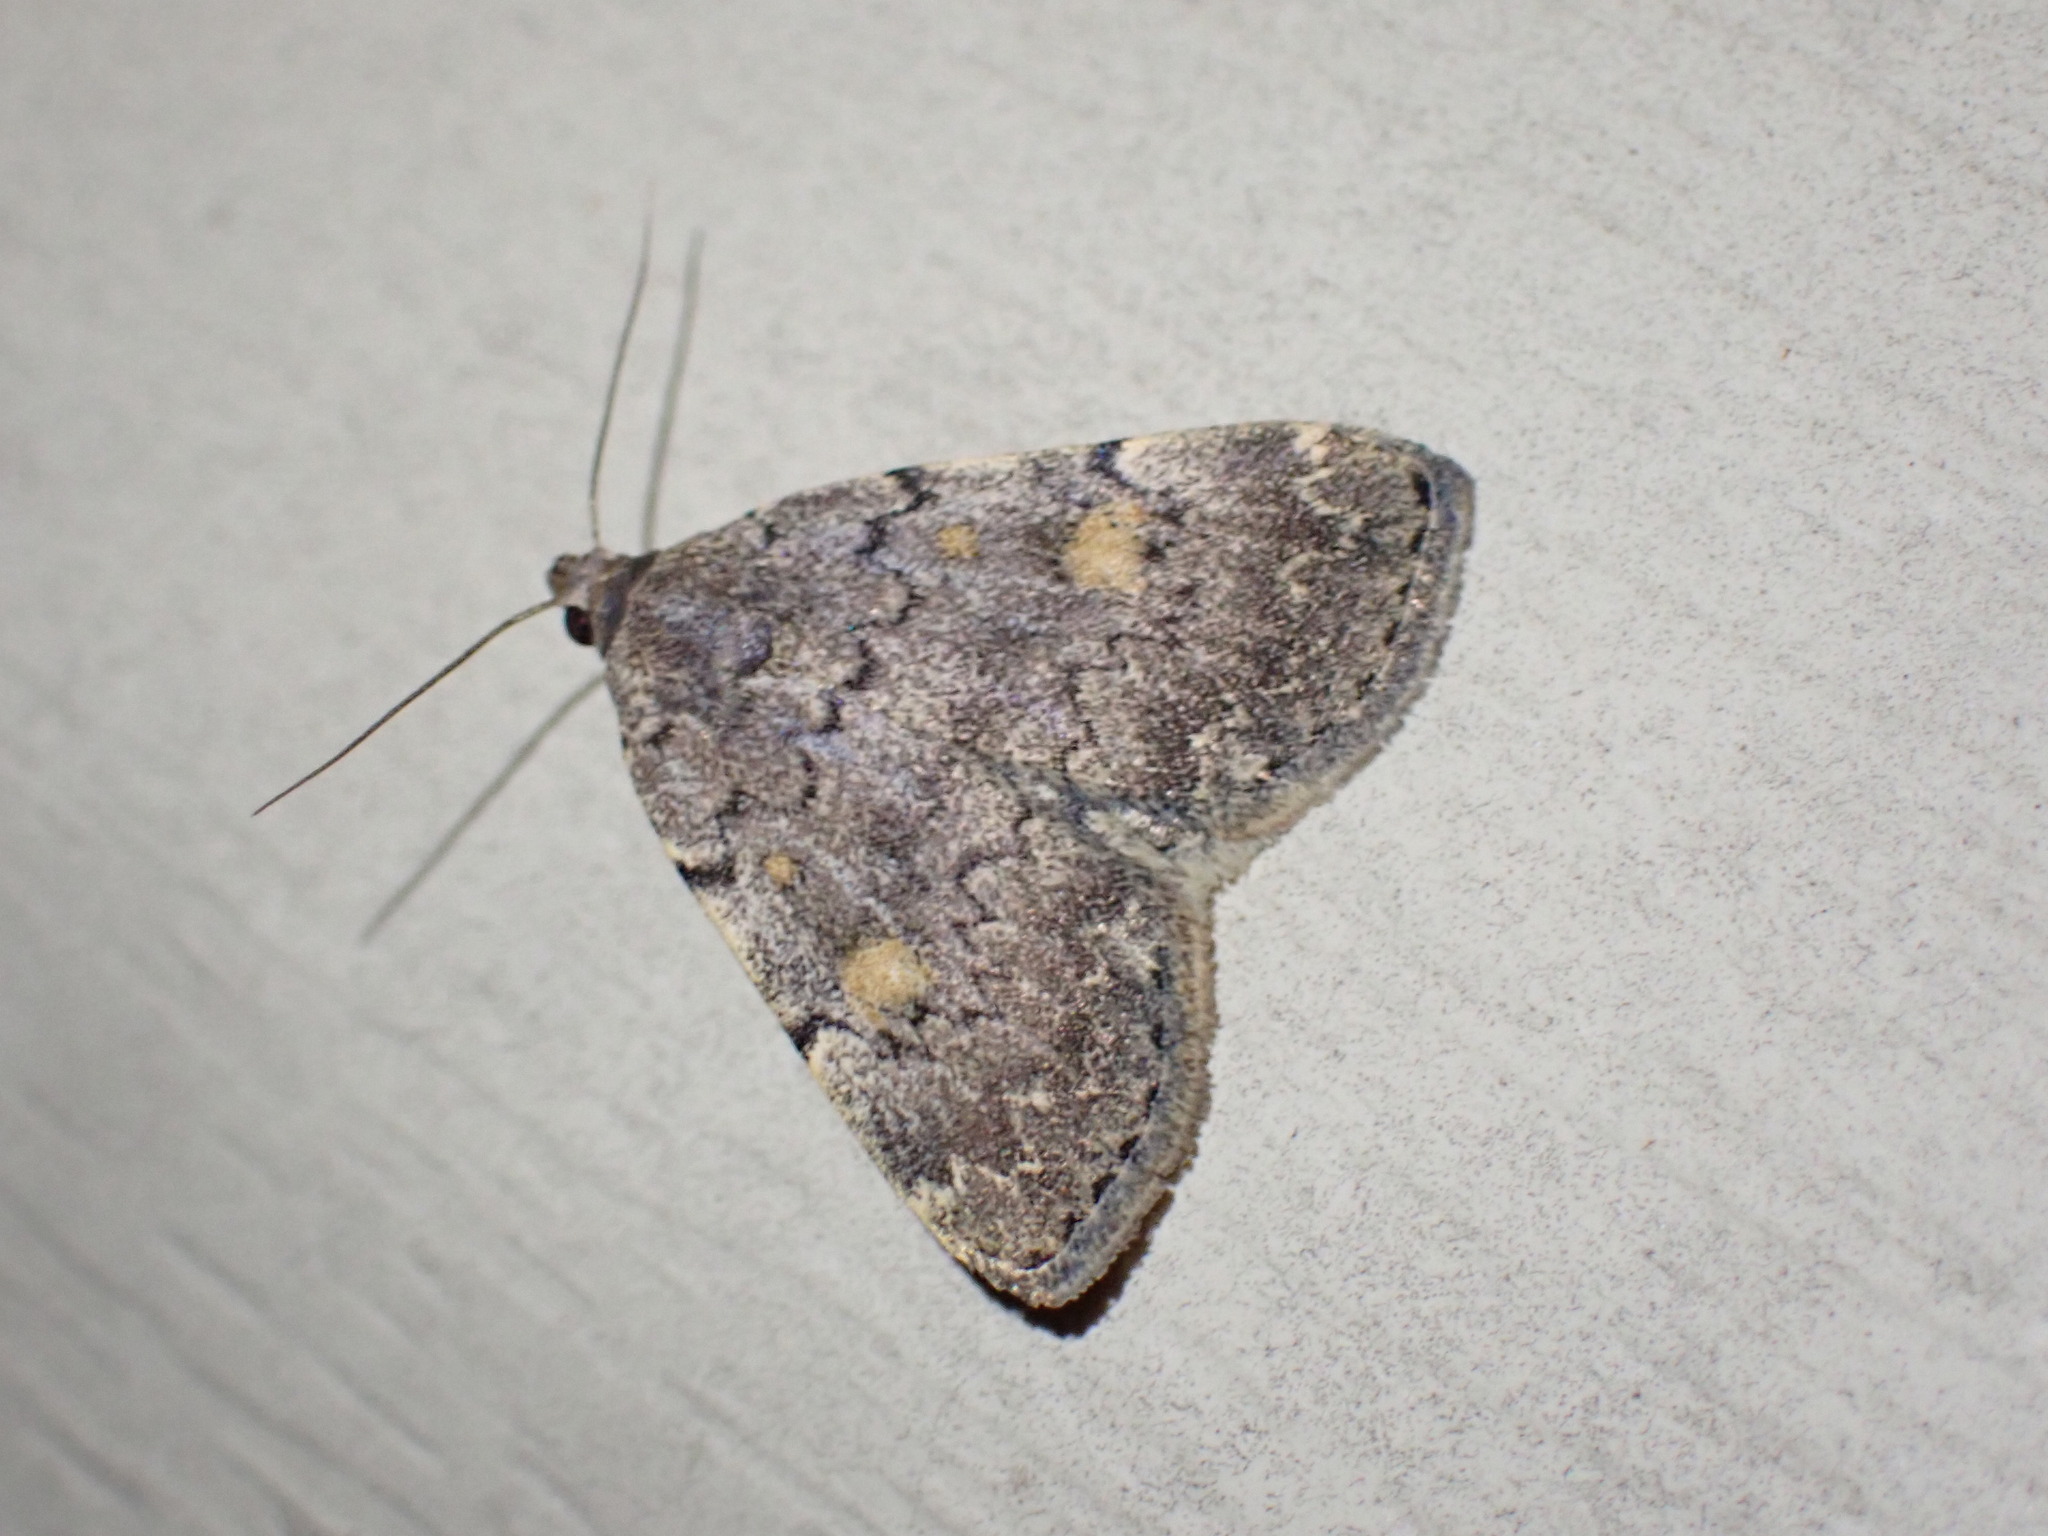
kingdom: Animalia
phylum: Arthropoda
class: Insecta
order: Lepidoptera
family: Erebidae
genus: Idia
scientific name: Idia aemula
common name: Common idia moth
